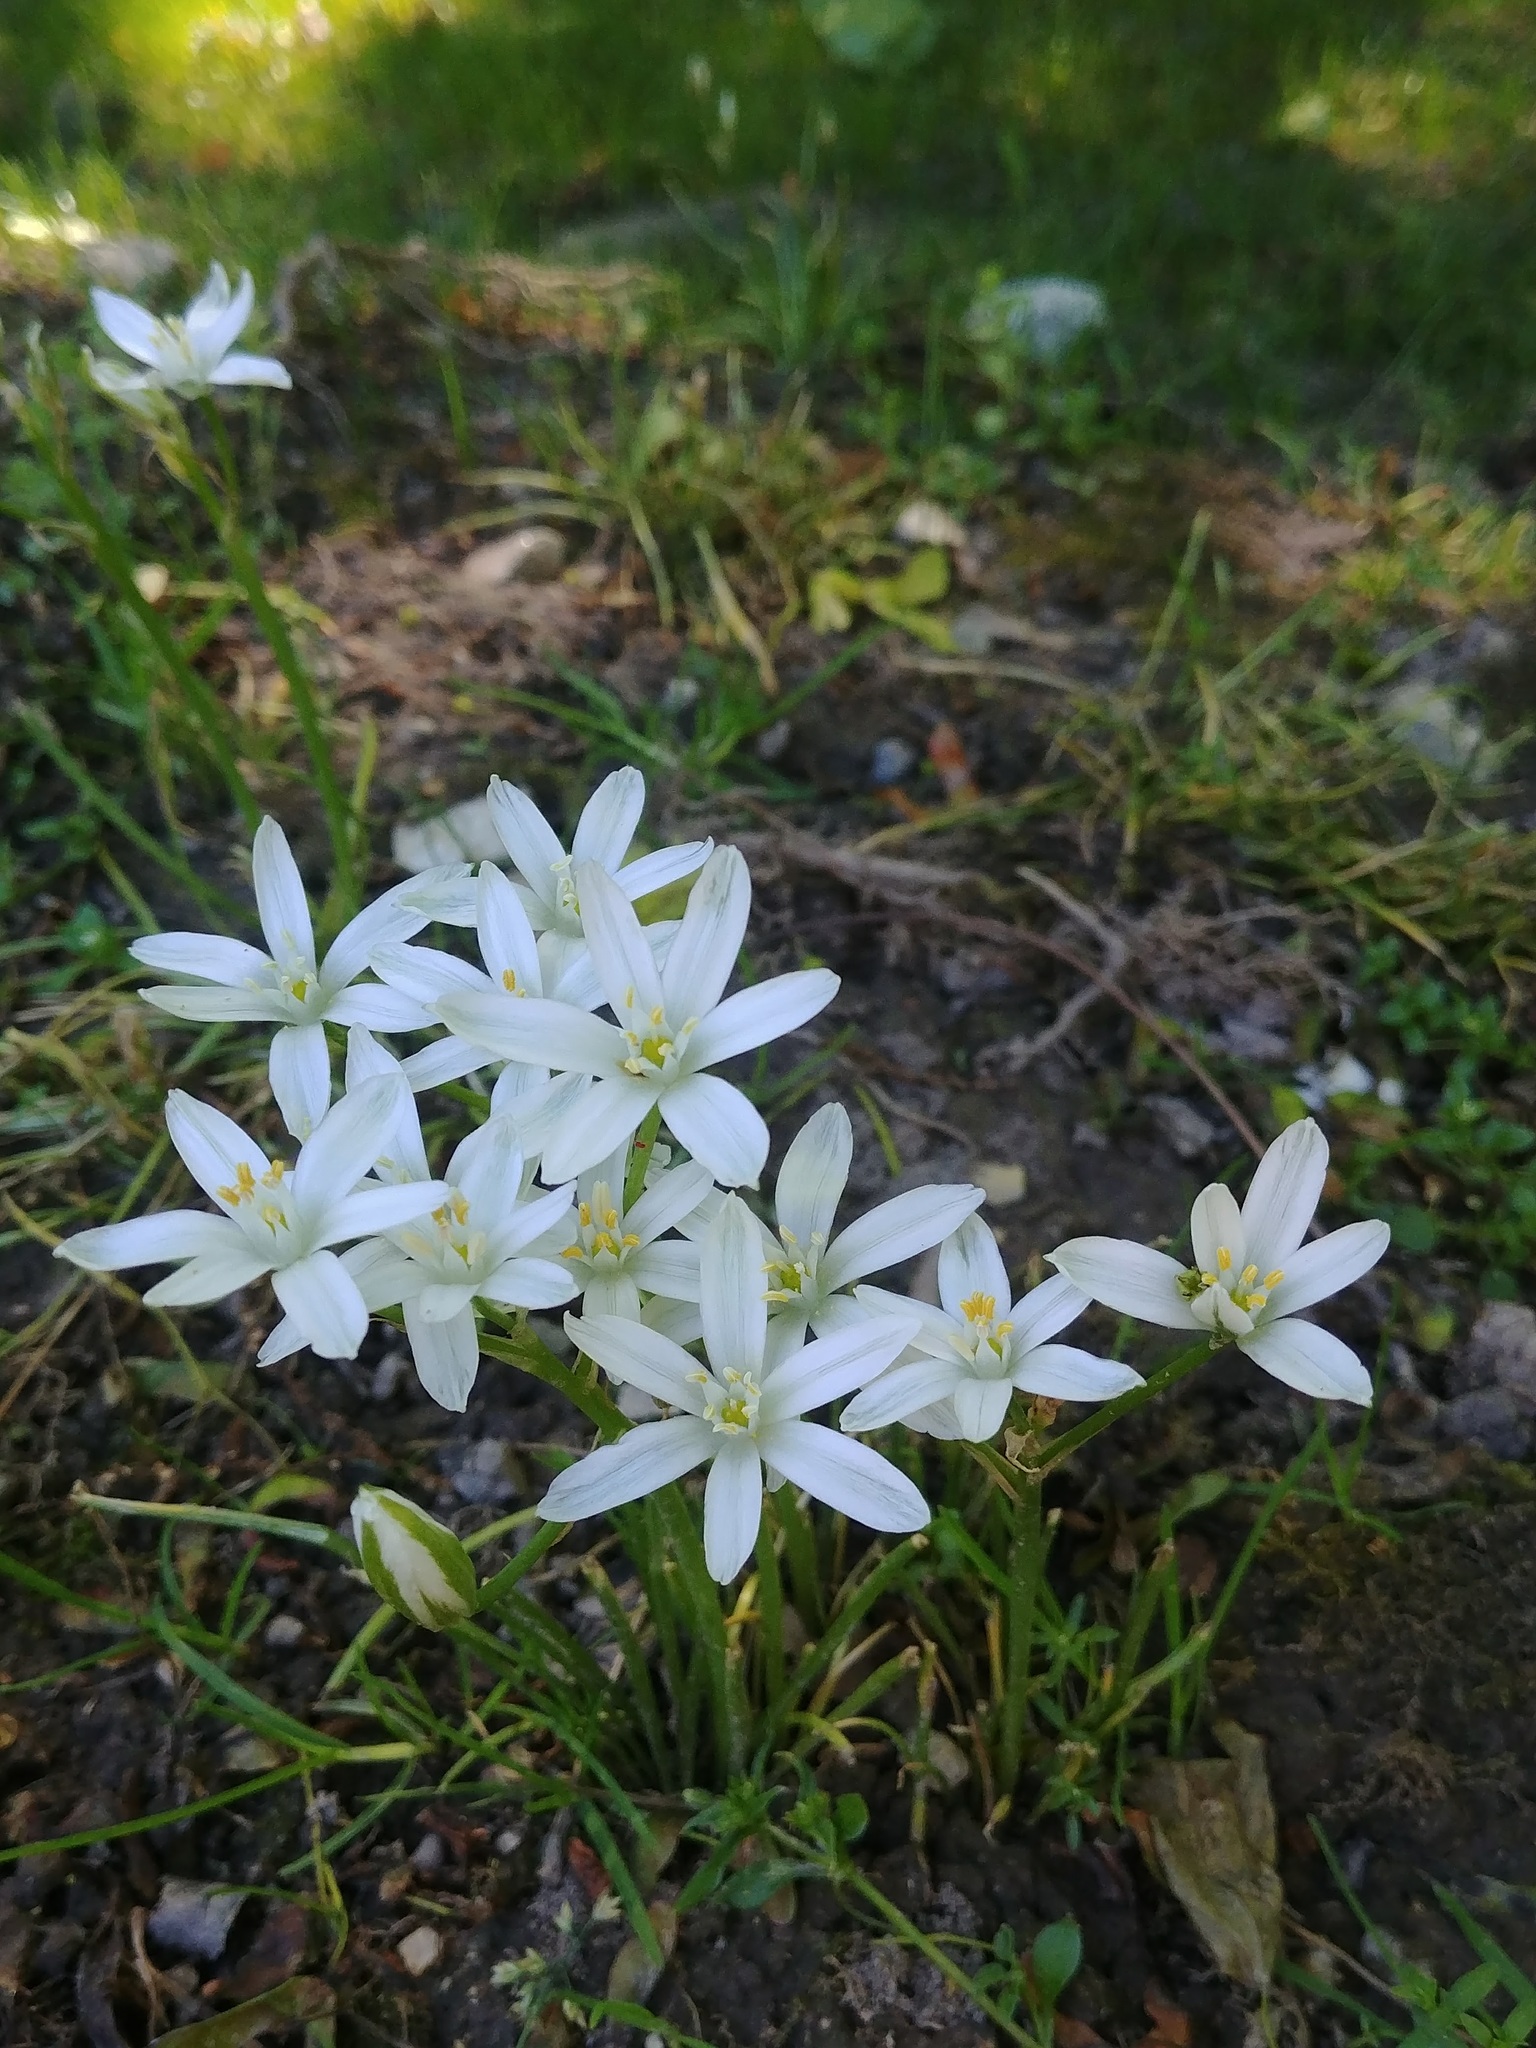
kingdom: Plantae
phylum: Tracheophyta
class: Liliopsida
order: Asparagales
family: Asparagaceae
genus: Ornithogalum
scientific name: Ornithogalum umbellatum
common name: Garden star-of-bethlehem
